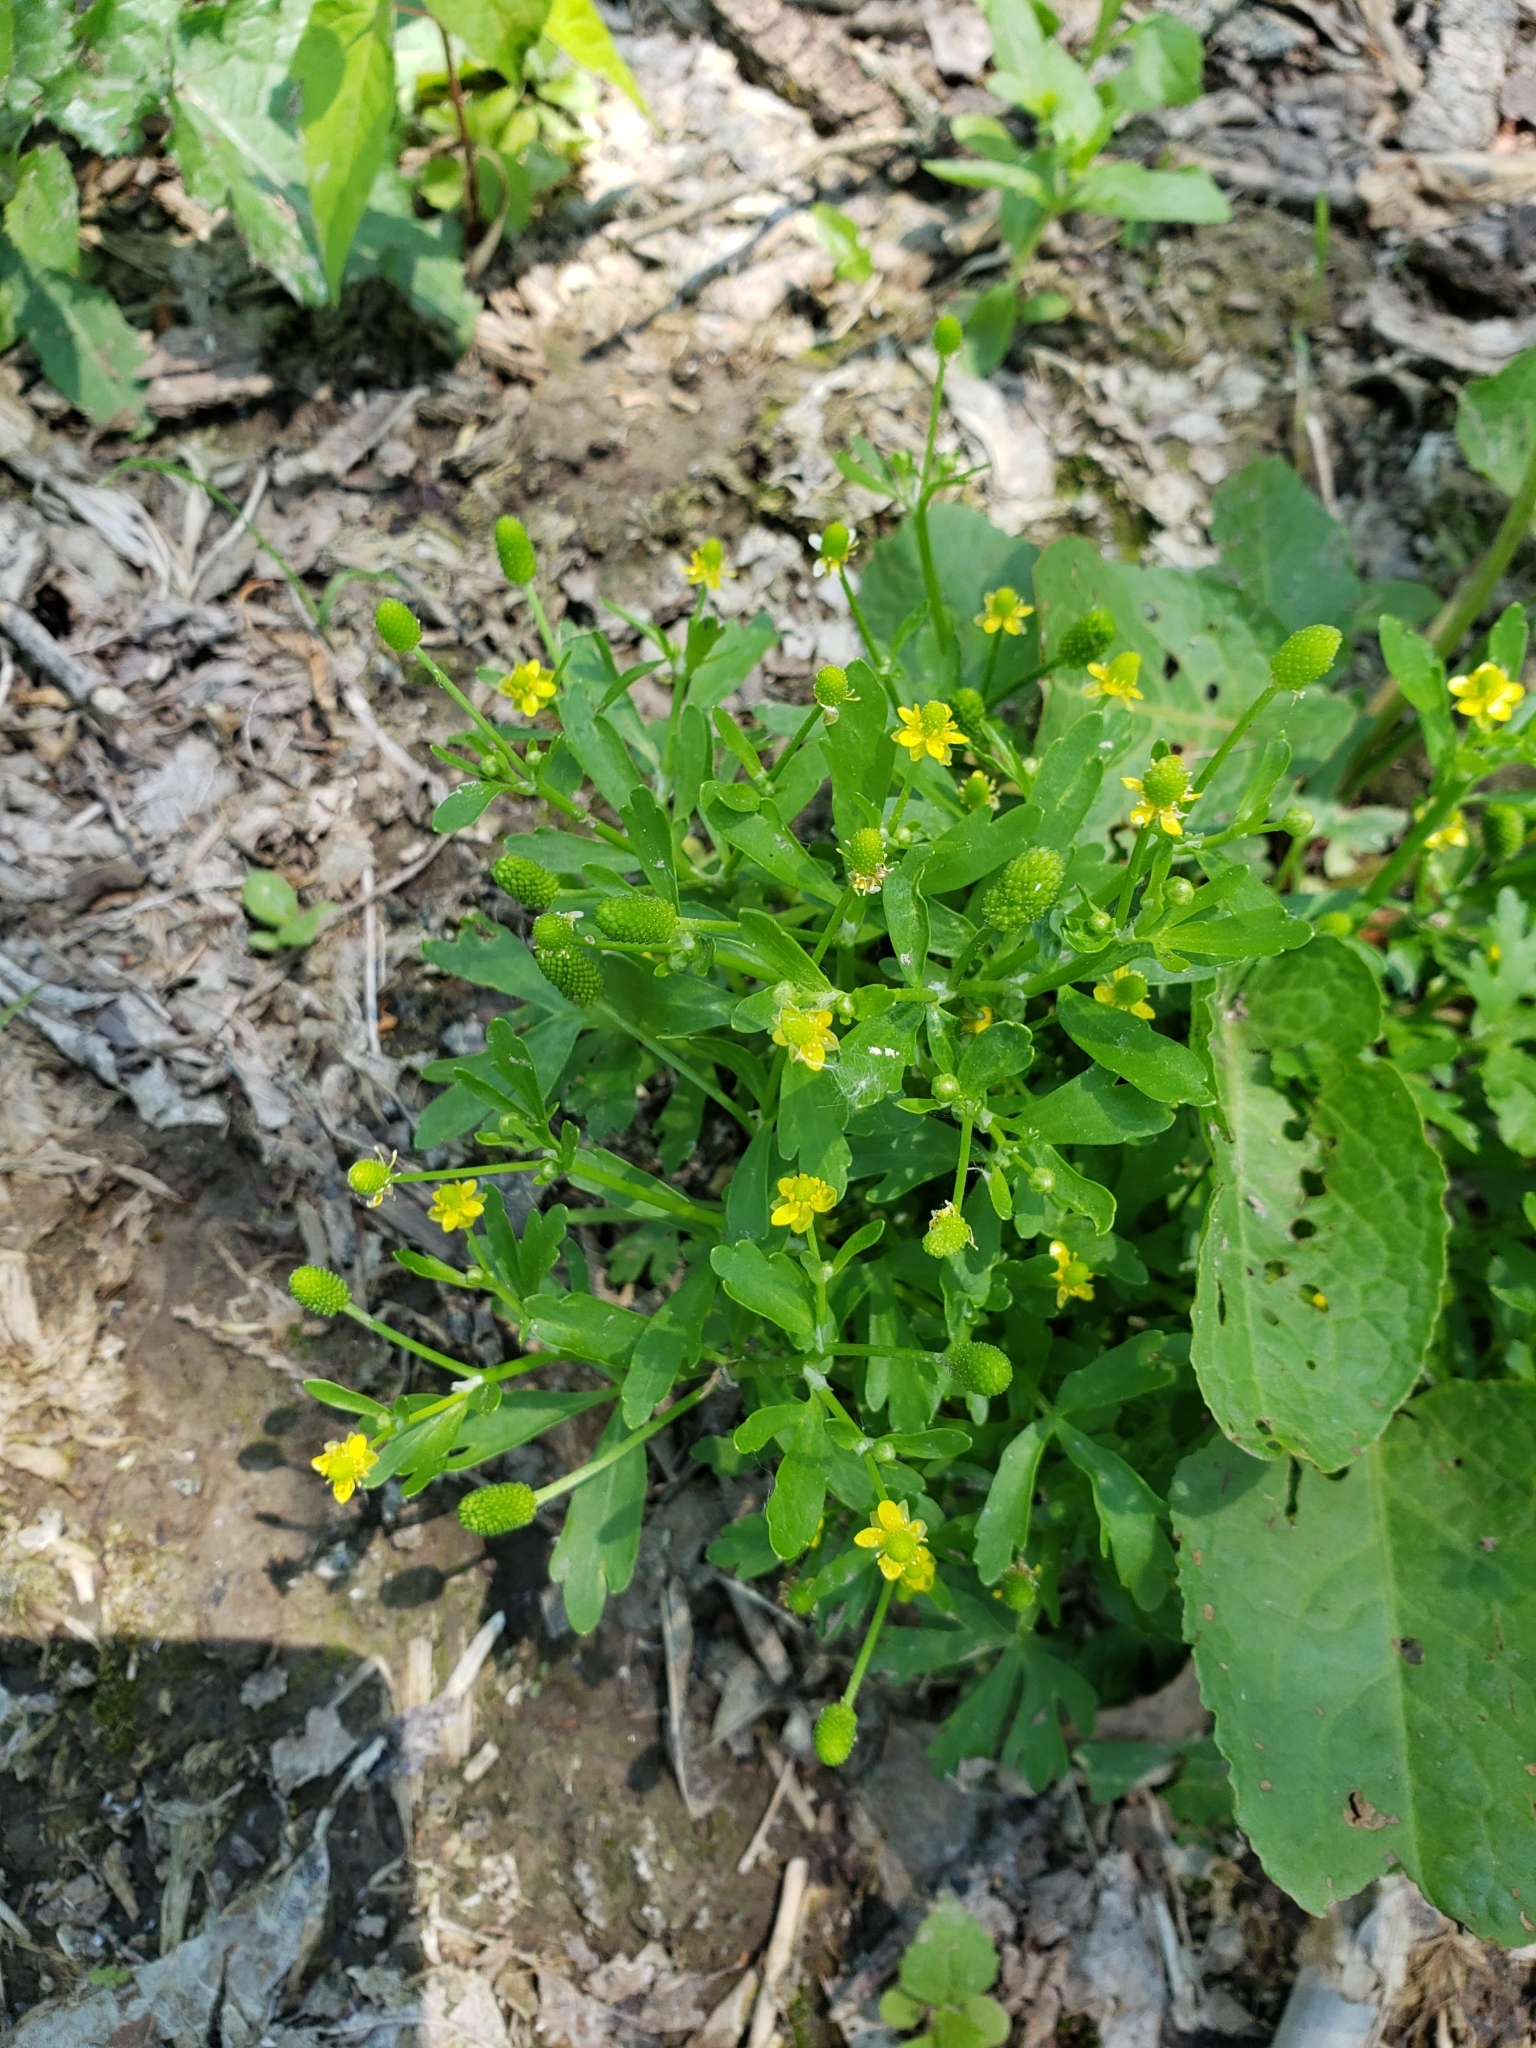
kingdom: Plantae
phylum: Tracheophyta
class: Magnoliopsida
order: Ranunculales
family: Ranunculaceae
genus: Ranunculus
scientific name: Ranunculus sceleratus
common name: Celery-leaved buttercup
